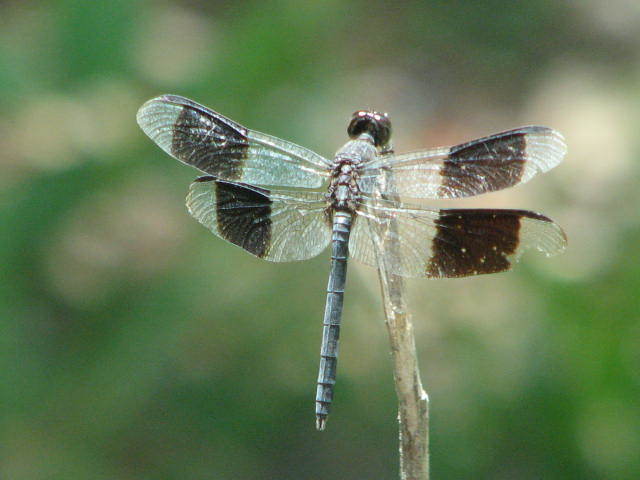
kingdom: Animalia
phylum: Arthropoda
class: Insecta
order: Odonata
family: Libellulidae
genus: Erythrodiplax
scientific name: Erythrodiplax umbrata
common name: Band-winged dragonlet
